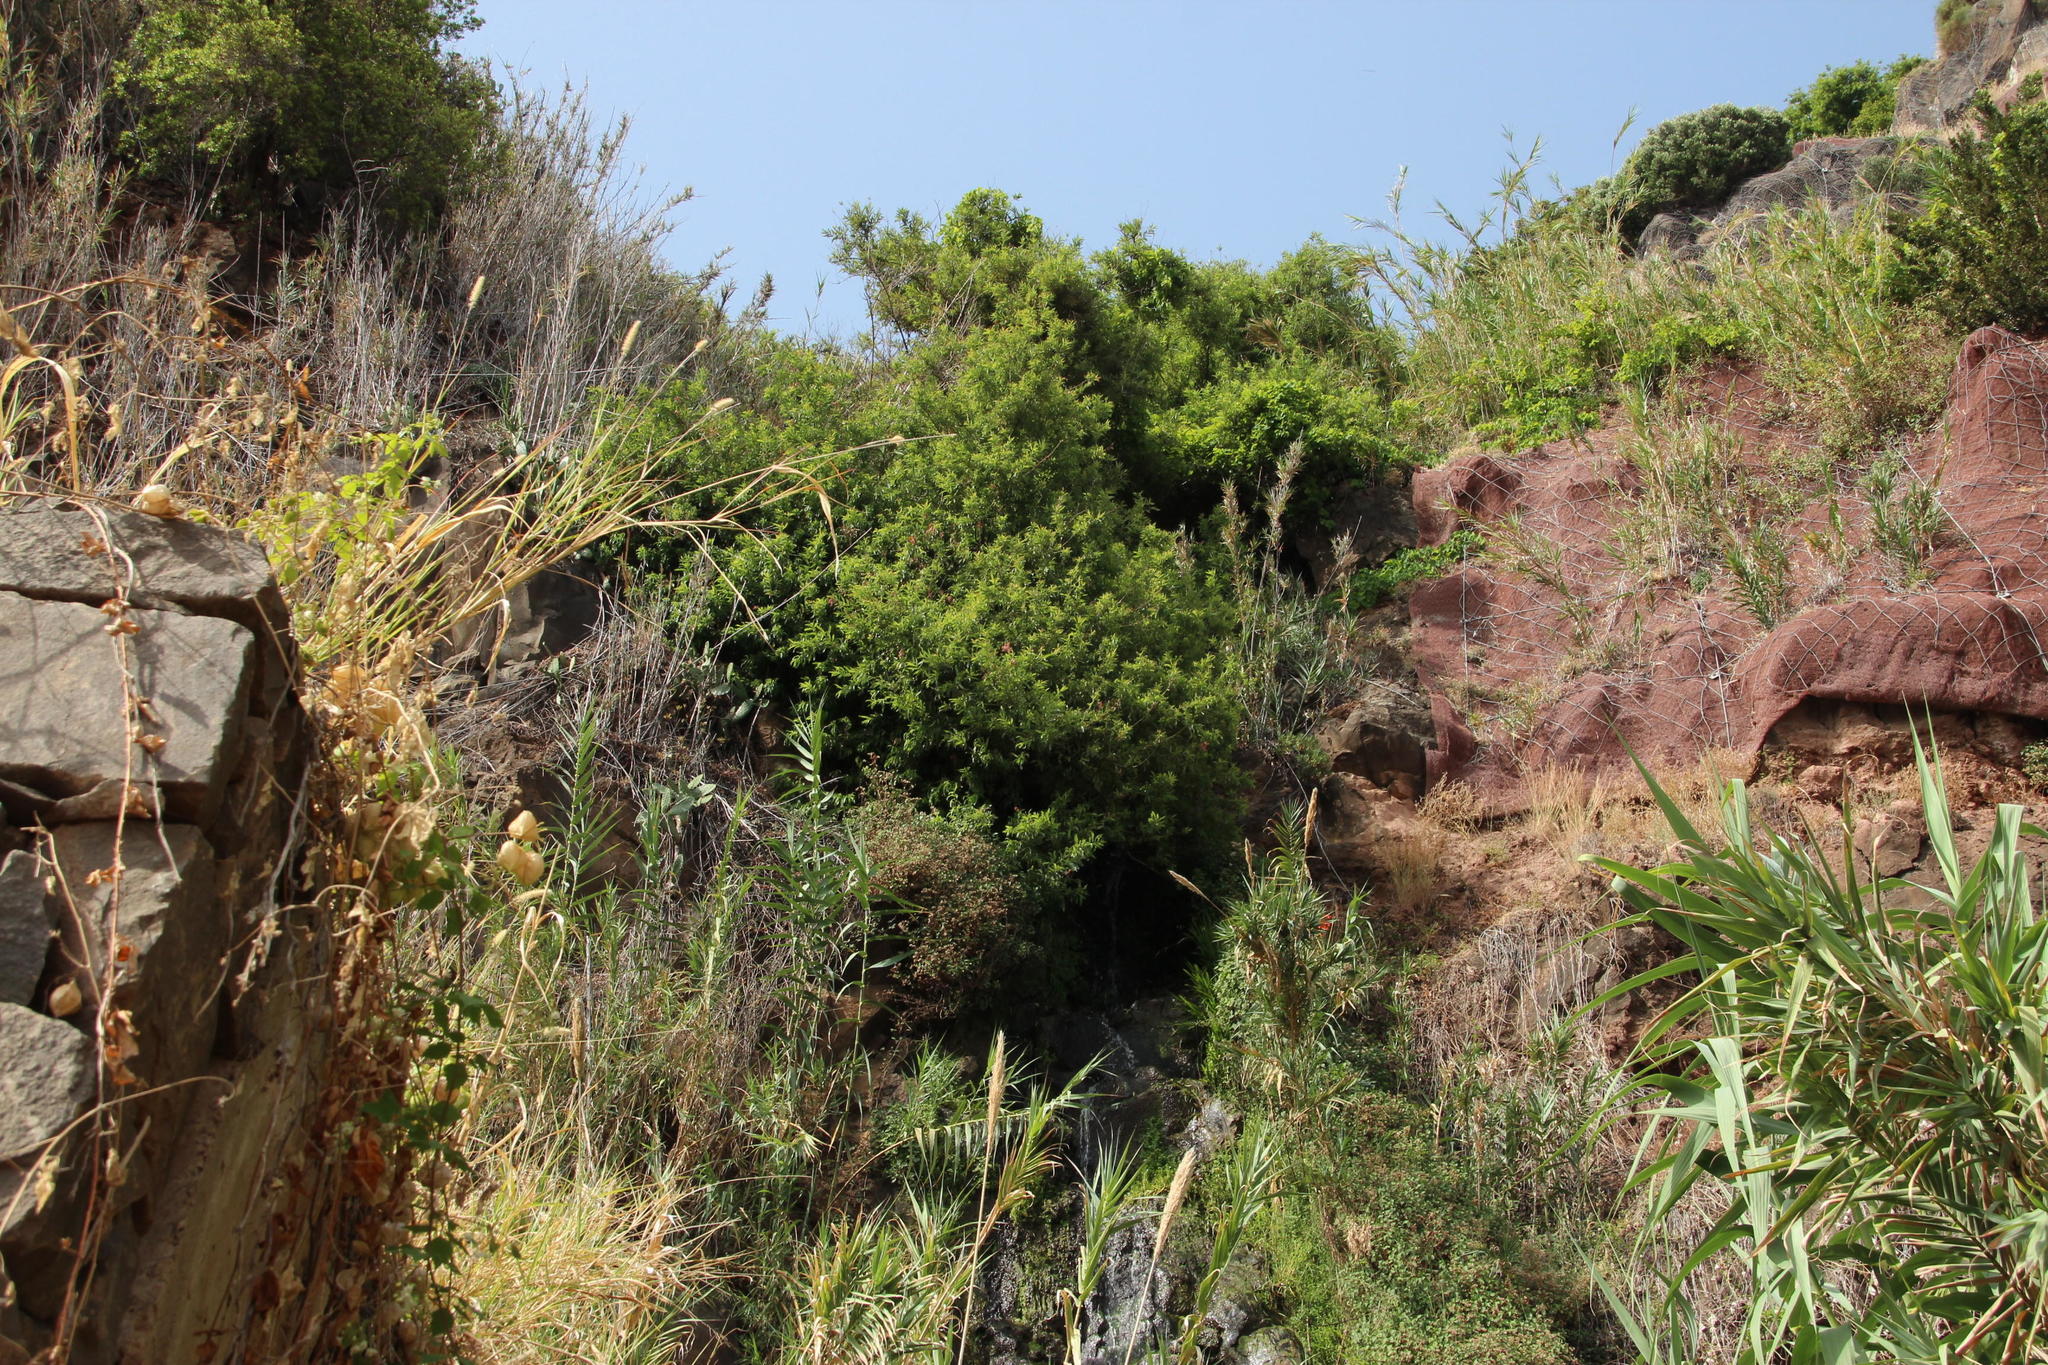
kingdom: Plantae
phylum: Tracheophyta
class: Magnoliopsida
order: Malpighiales
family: Salicaceae
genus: Salix
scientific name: Salix canariensis
